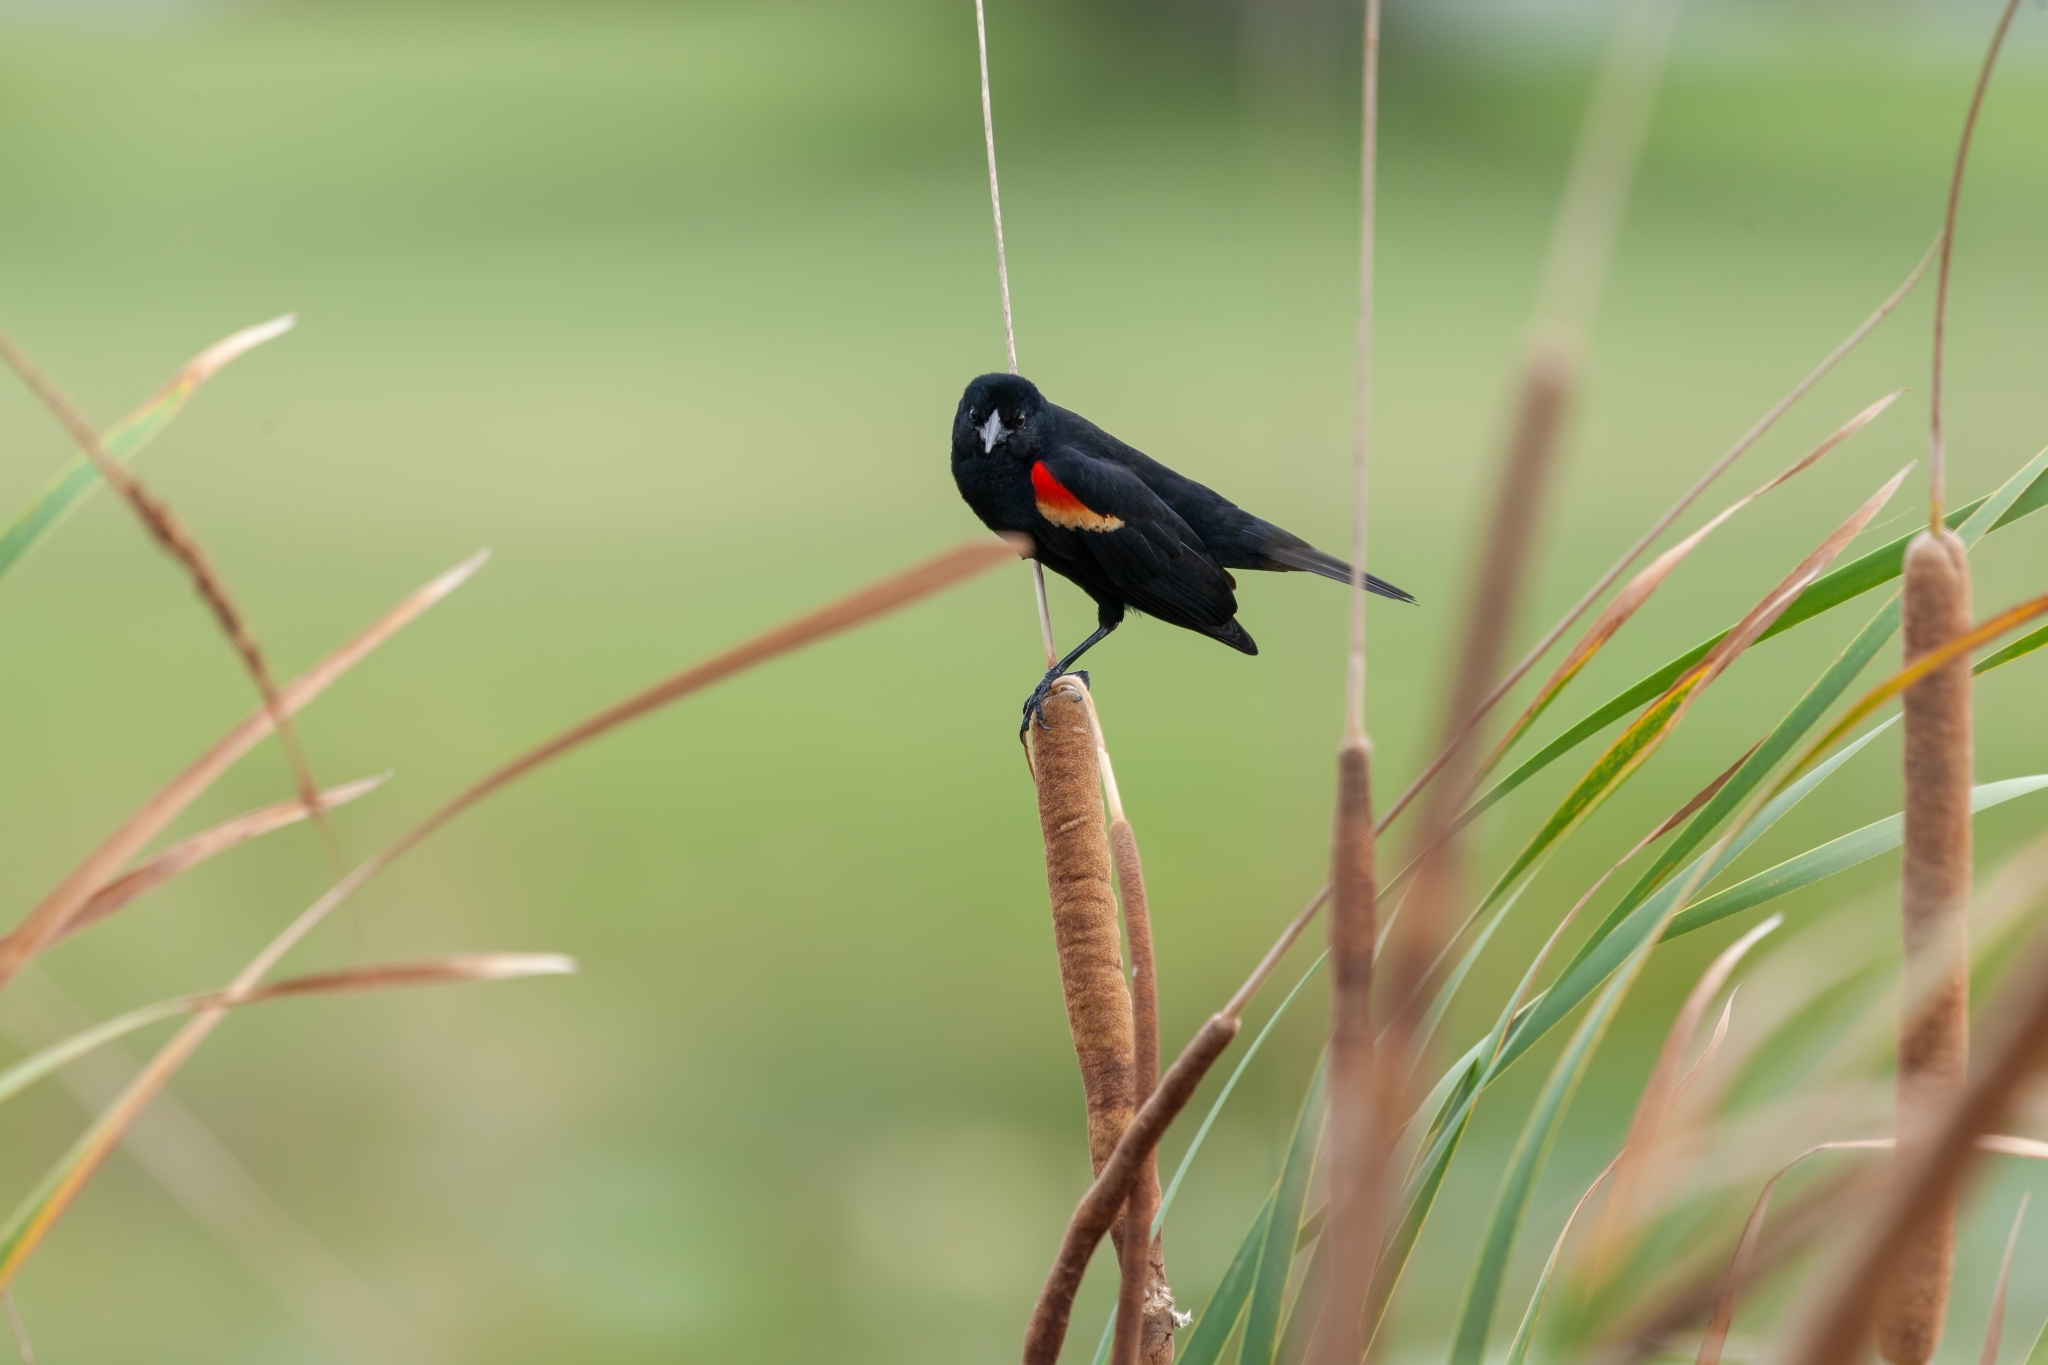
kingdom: Animalia
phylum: Chordata
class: Aves
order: Passeriformes
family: Icteridae
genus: Agelaius
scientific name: Agelaius phoeniceus
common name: Red-winged blackbird
